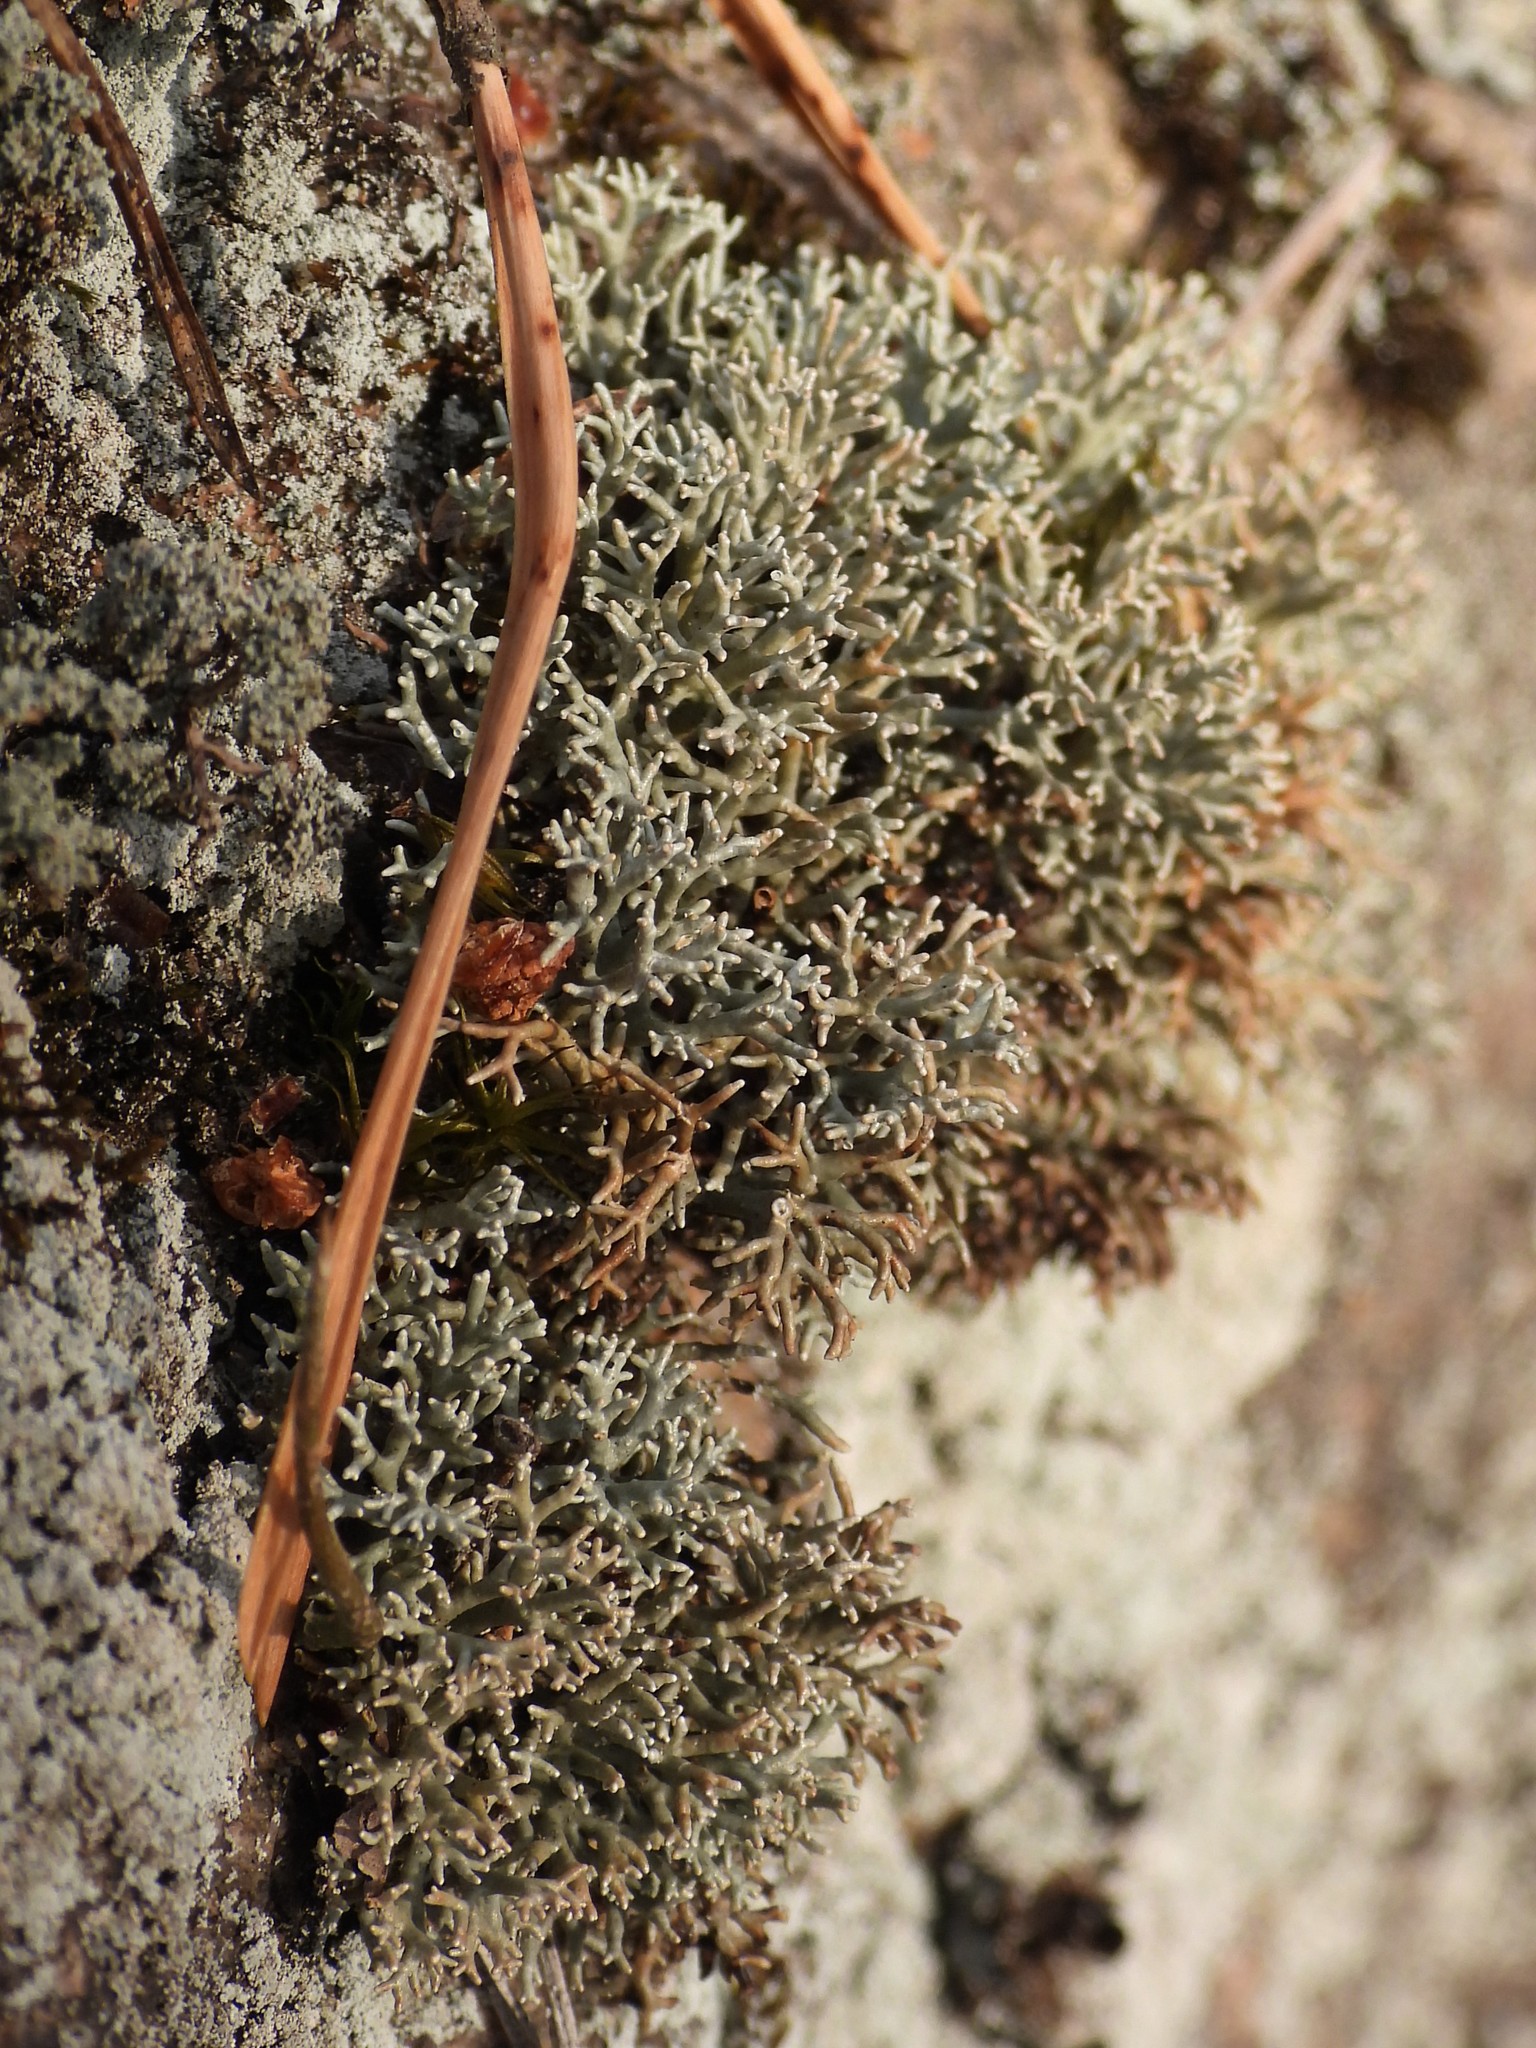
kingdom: Fungi
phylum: Ascomycota
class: Lecanoromycetes
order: Lecanorales
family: Sphaerophoraceae
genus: Sphaerophorus
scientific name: Sphaerophorus fragilis
